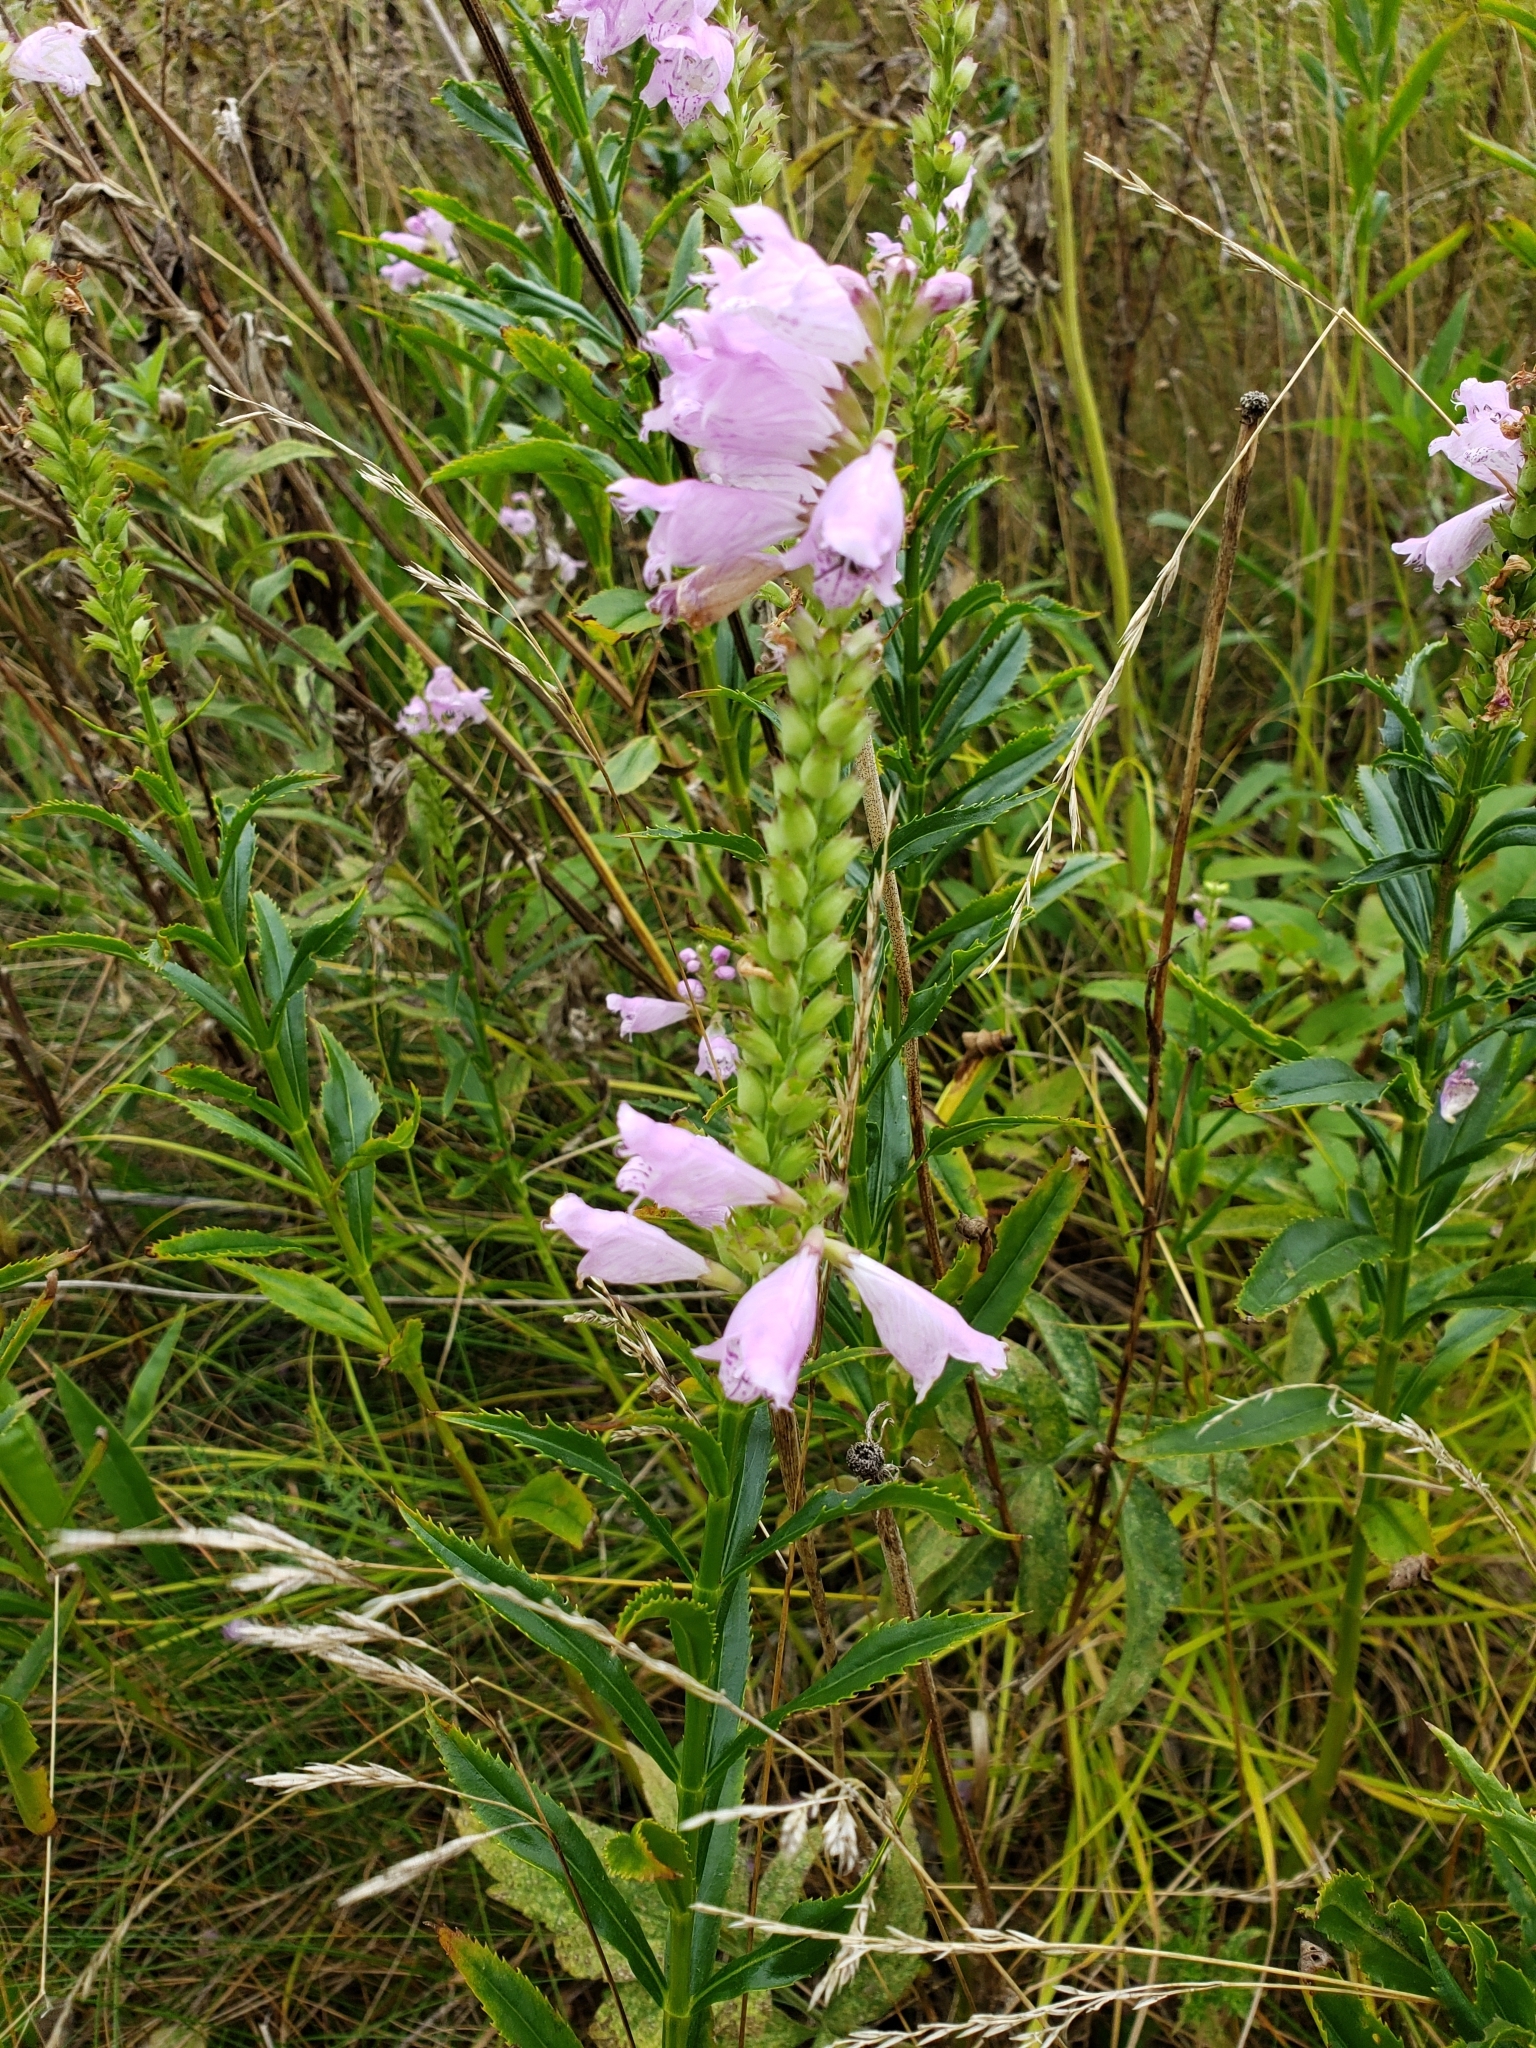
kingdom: Plantae
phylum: Tracheophyta
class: Magnoliopsida
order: Lamiales
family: Lamiaceae
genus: Physostegia
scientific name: Physostegia virginiana
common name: Obedient-plant
